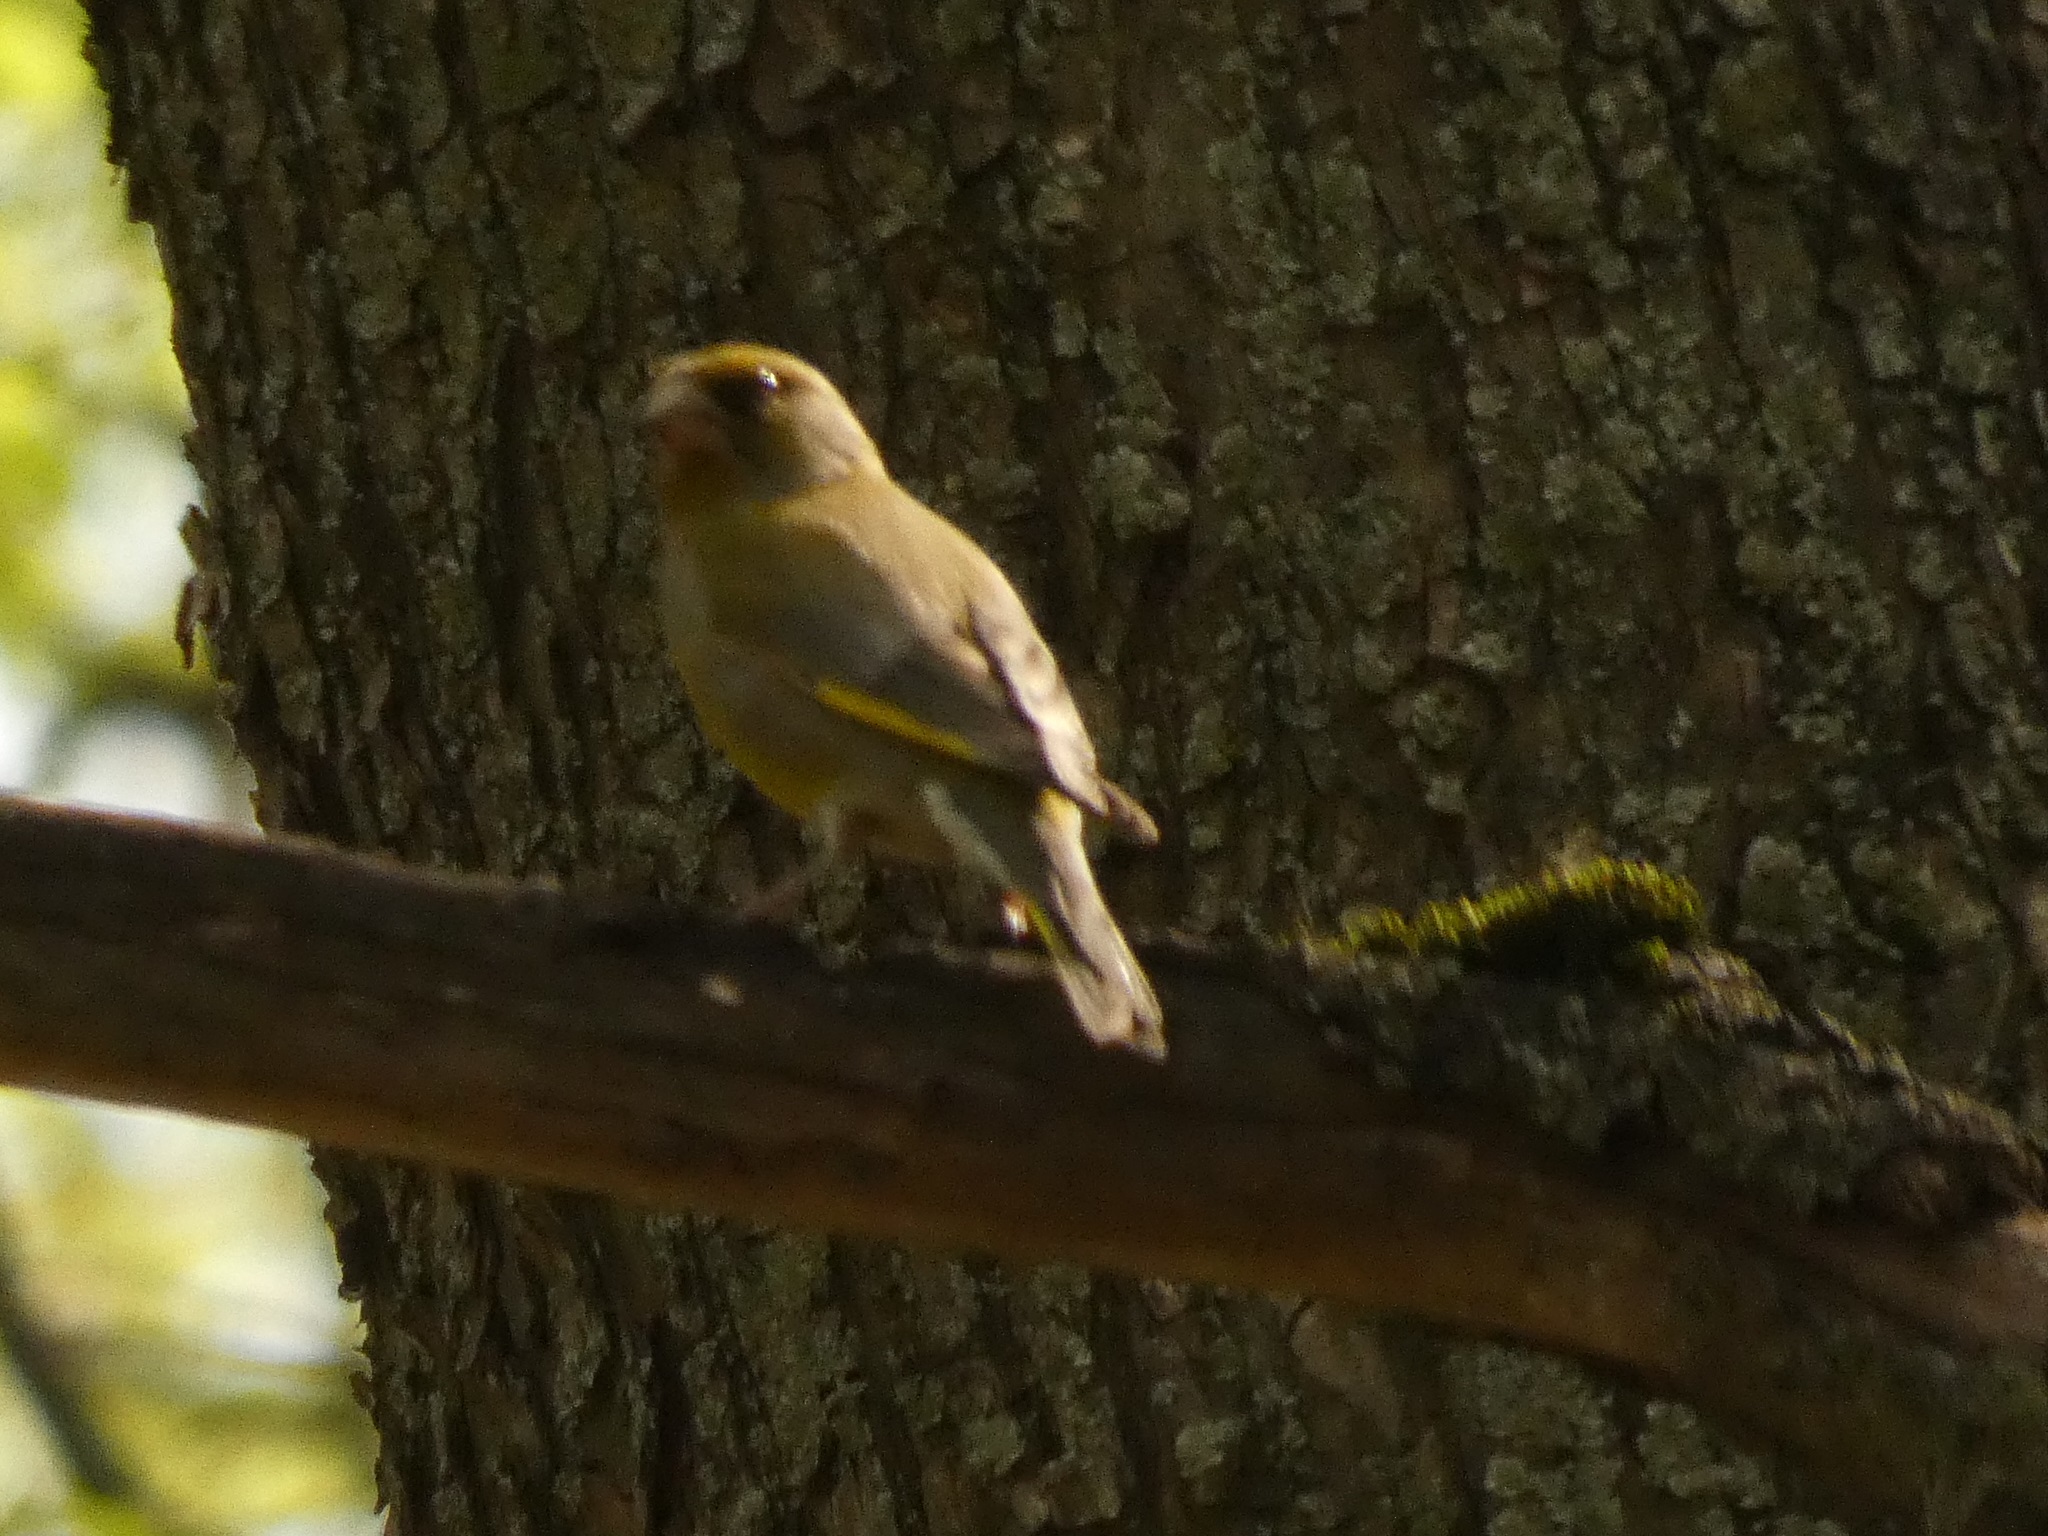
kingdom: Plantae
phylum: Tracheophyta
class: Liliopsida
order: Poales
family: Poaceae
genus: Chloris
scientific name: Chloris chloris
